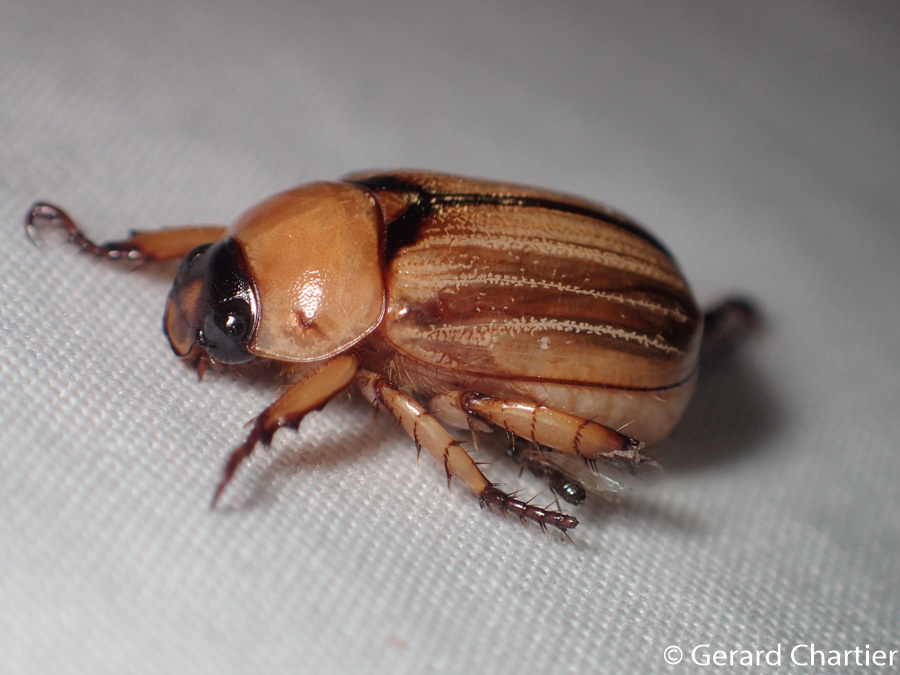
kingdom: Animalia
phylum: Arthropoda
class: Insecta
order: Coleoptera
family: Scarabaeidae
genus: Anomala
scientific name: Anomala pallida
